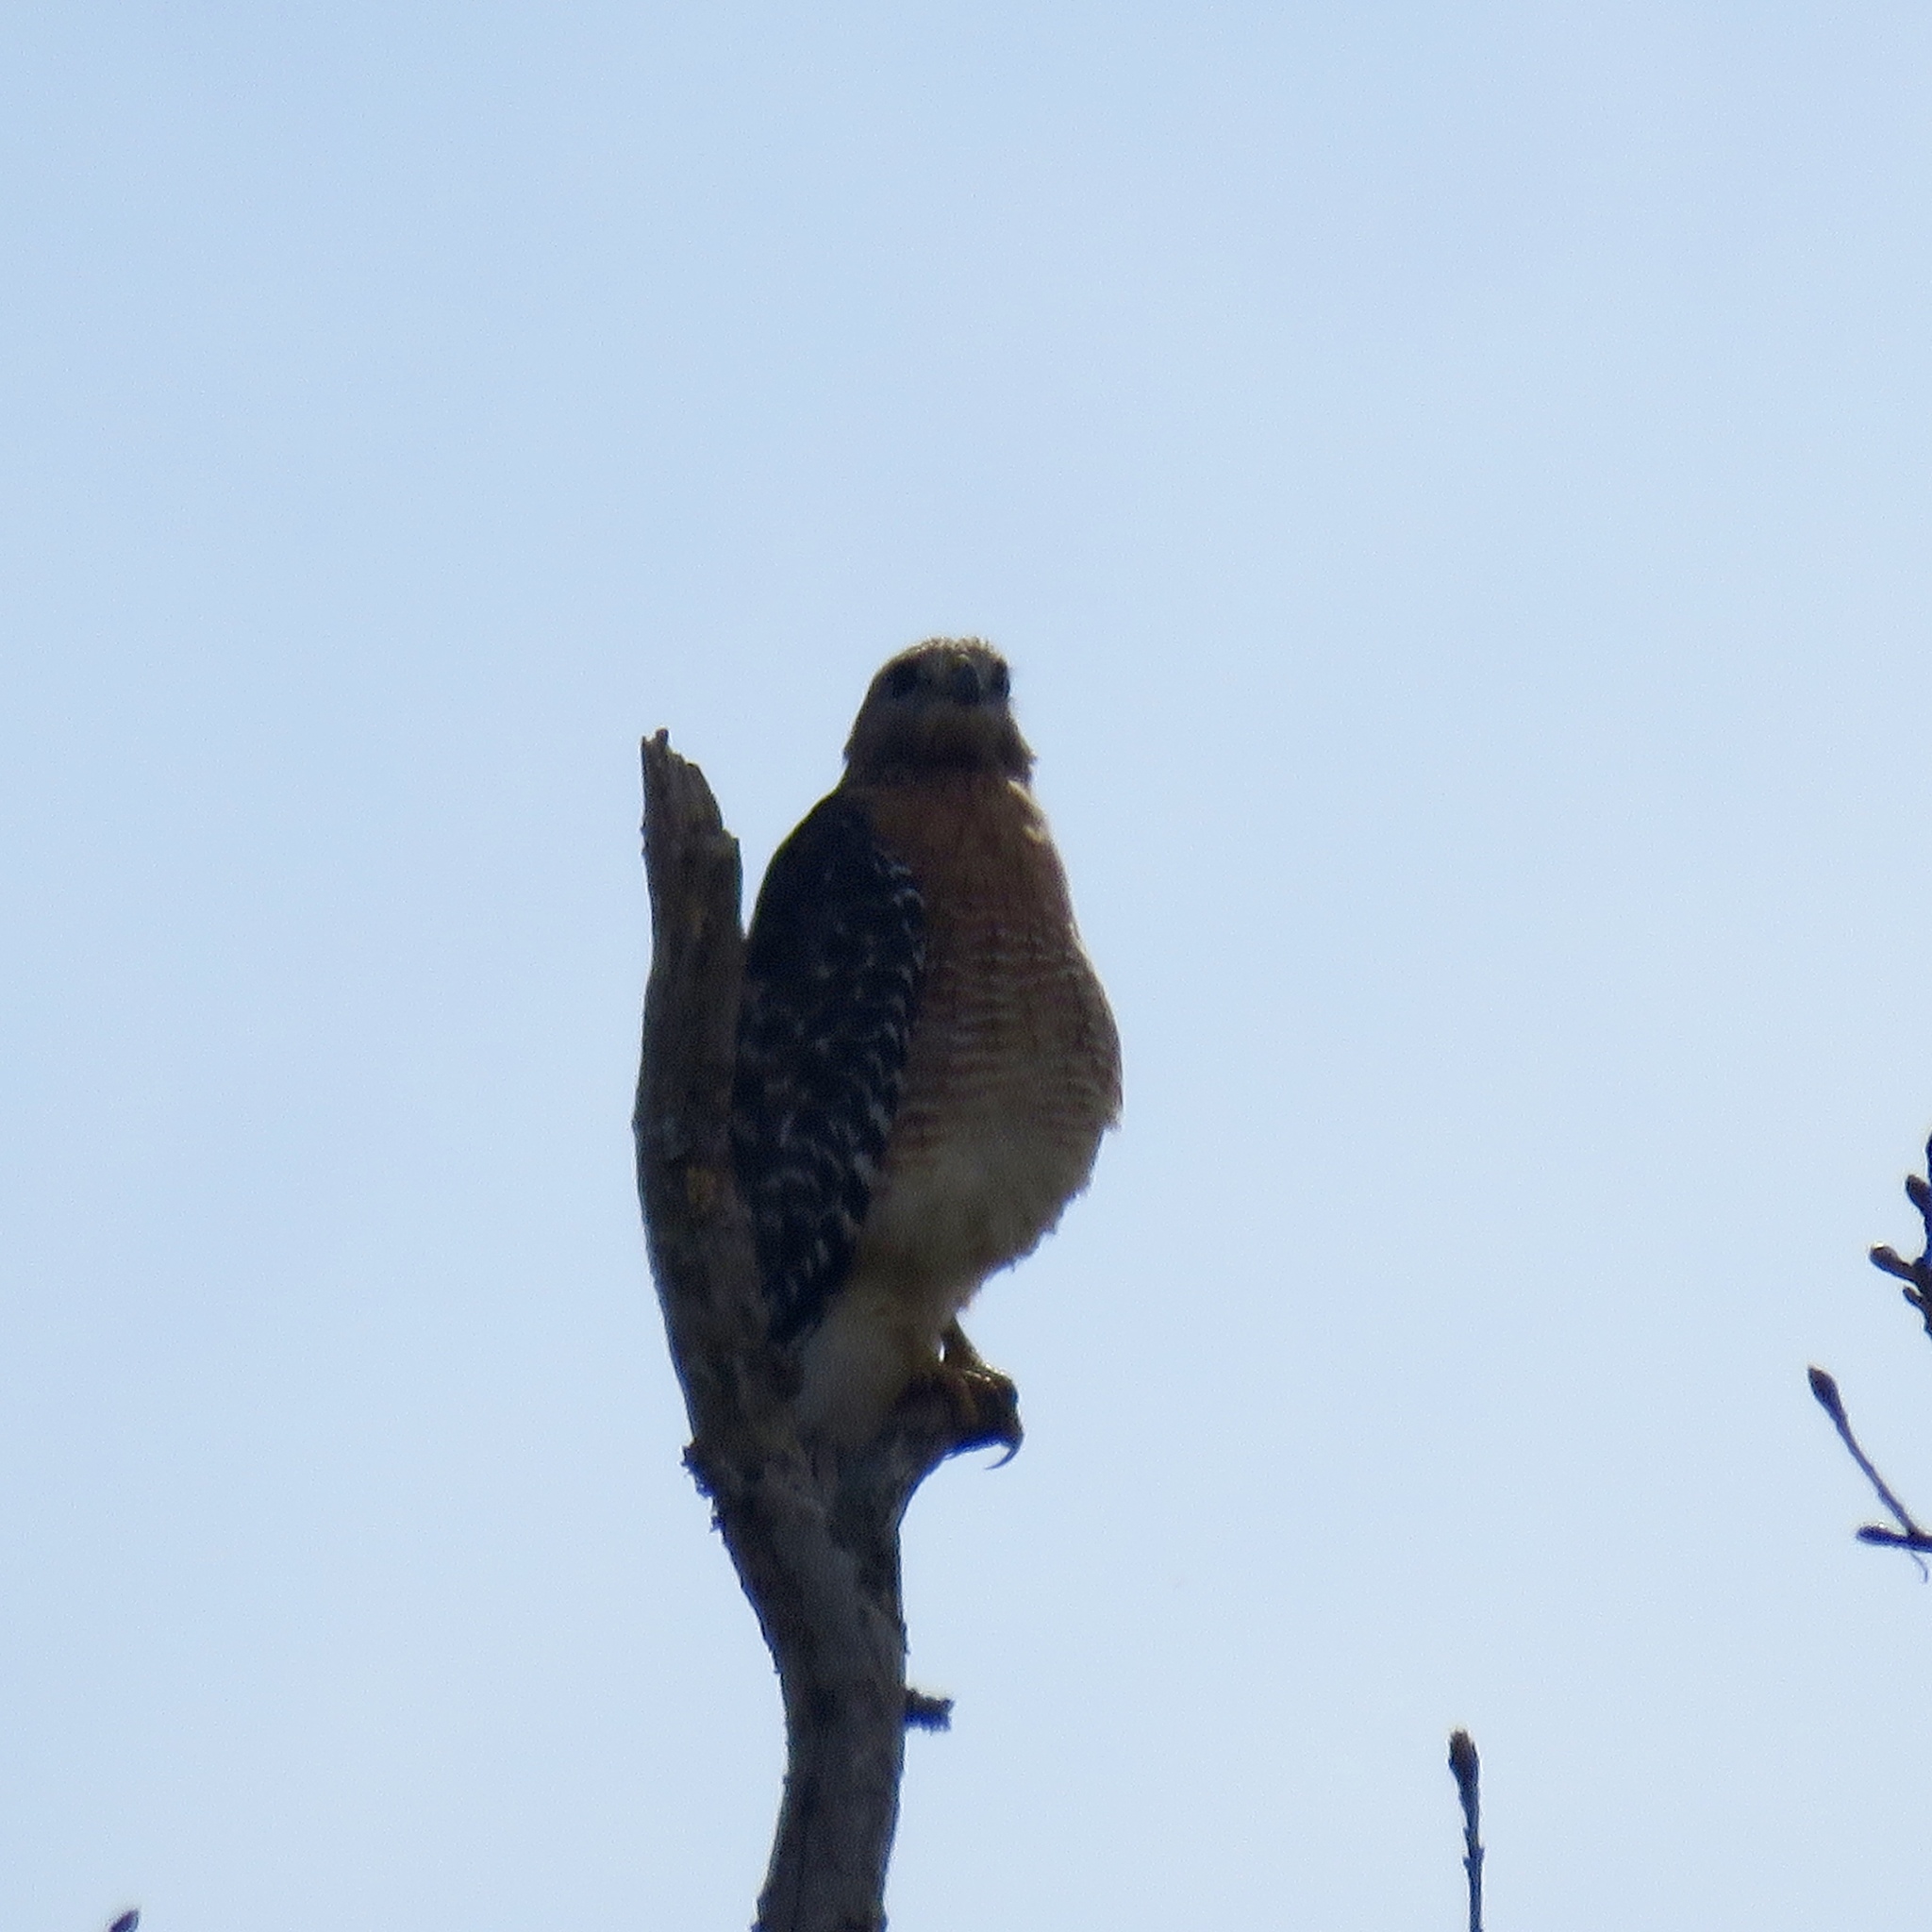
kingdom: Animalia
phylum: Chordata
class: Aves
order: Accipitriformes
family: Accipitridae
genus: Buteo
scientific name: Buteo lineatus
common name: Red-shouldered hawk
